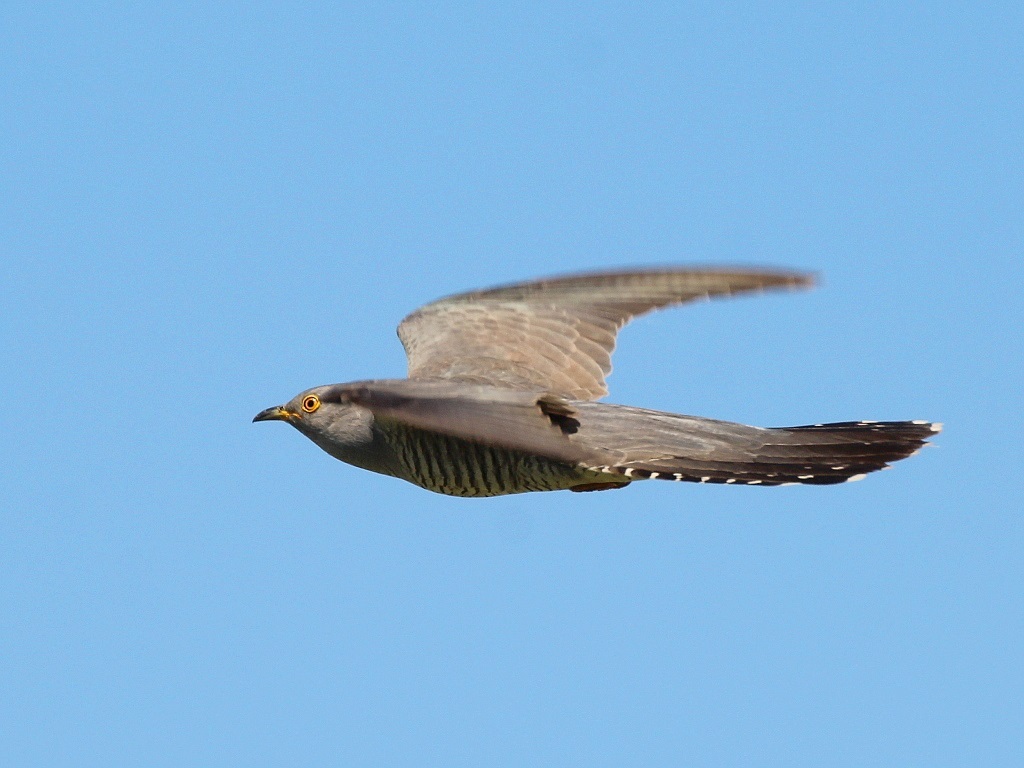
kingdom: Animalia
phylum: Chordata
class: Aves
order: Cuculiformes
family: Cuculidae
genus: Cuculus
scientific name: Cuculus canorus
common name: Common cuckoo
